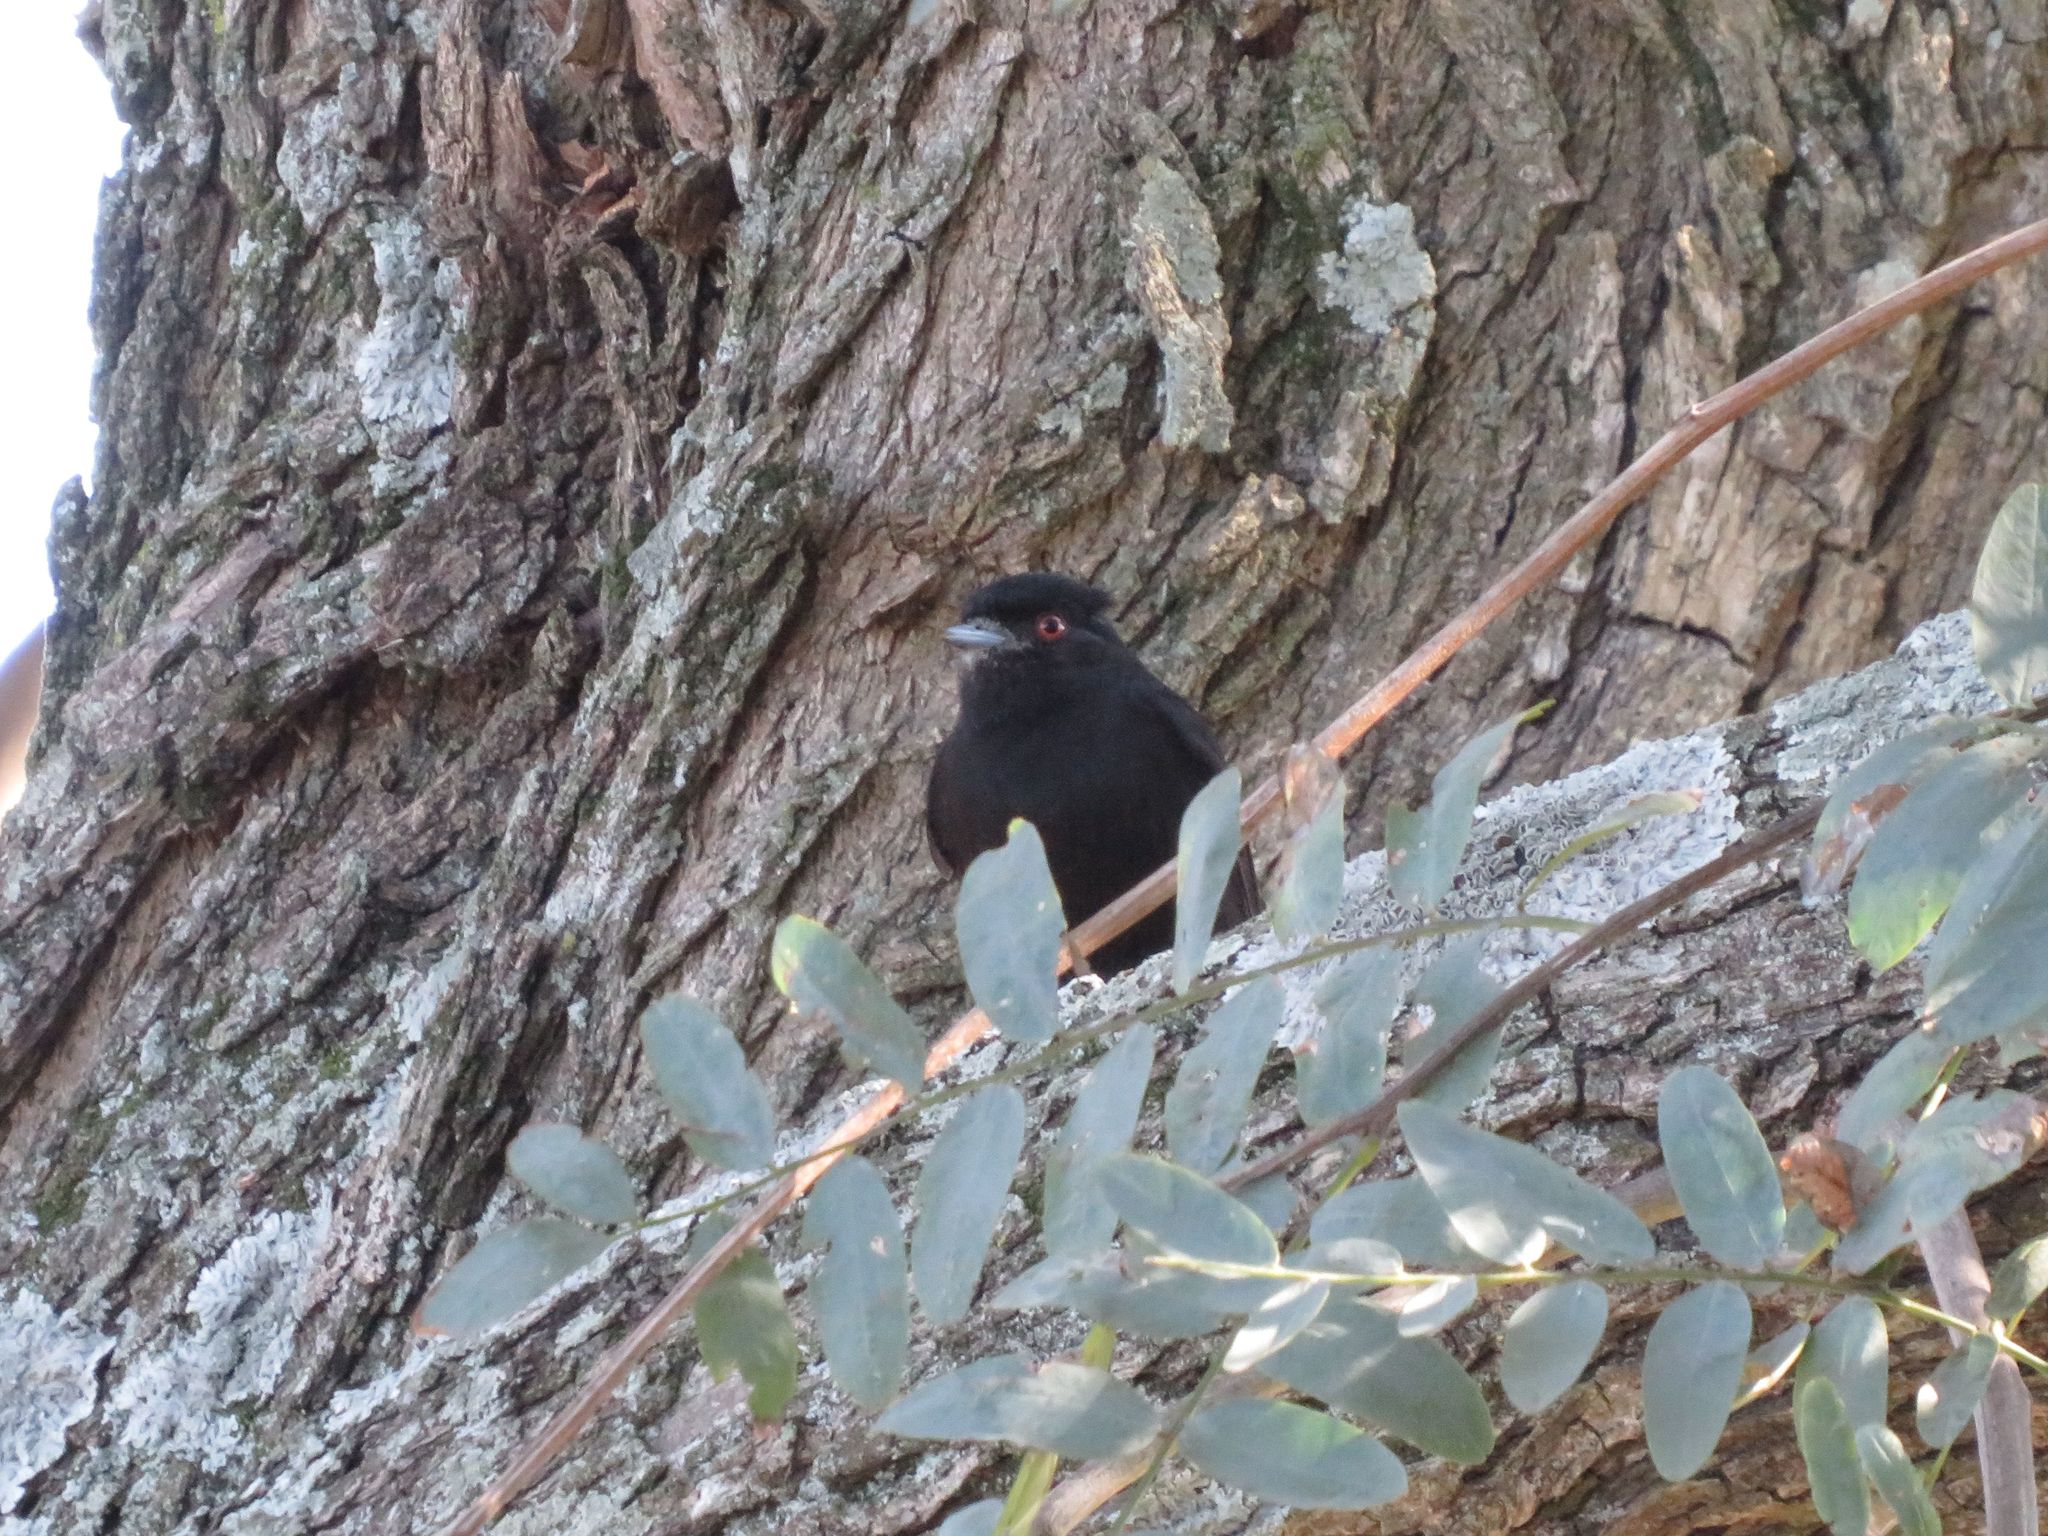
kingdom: Animalia
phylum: Chordata
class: Aves
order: Passeriformes
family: Tyrannidae
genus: Knipolegus
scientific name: Knipolegus cyanirostris
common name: Blue-billed black tyrant
